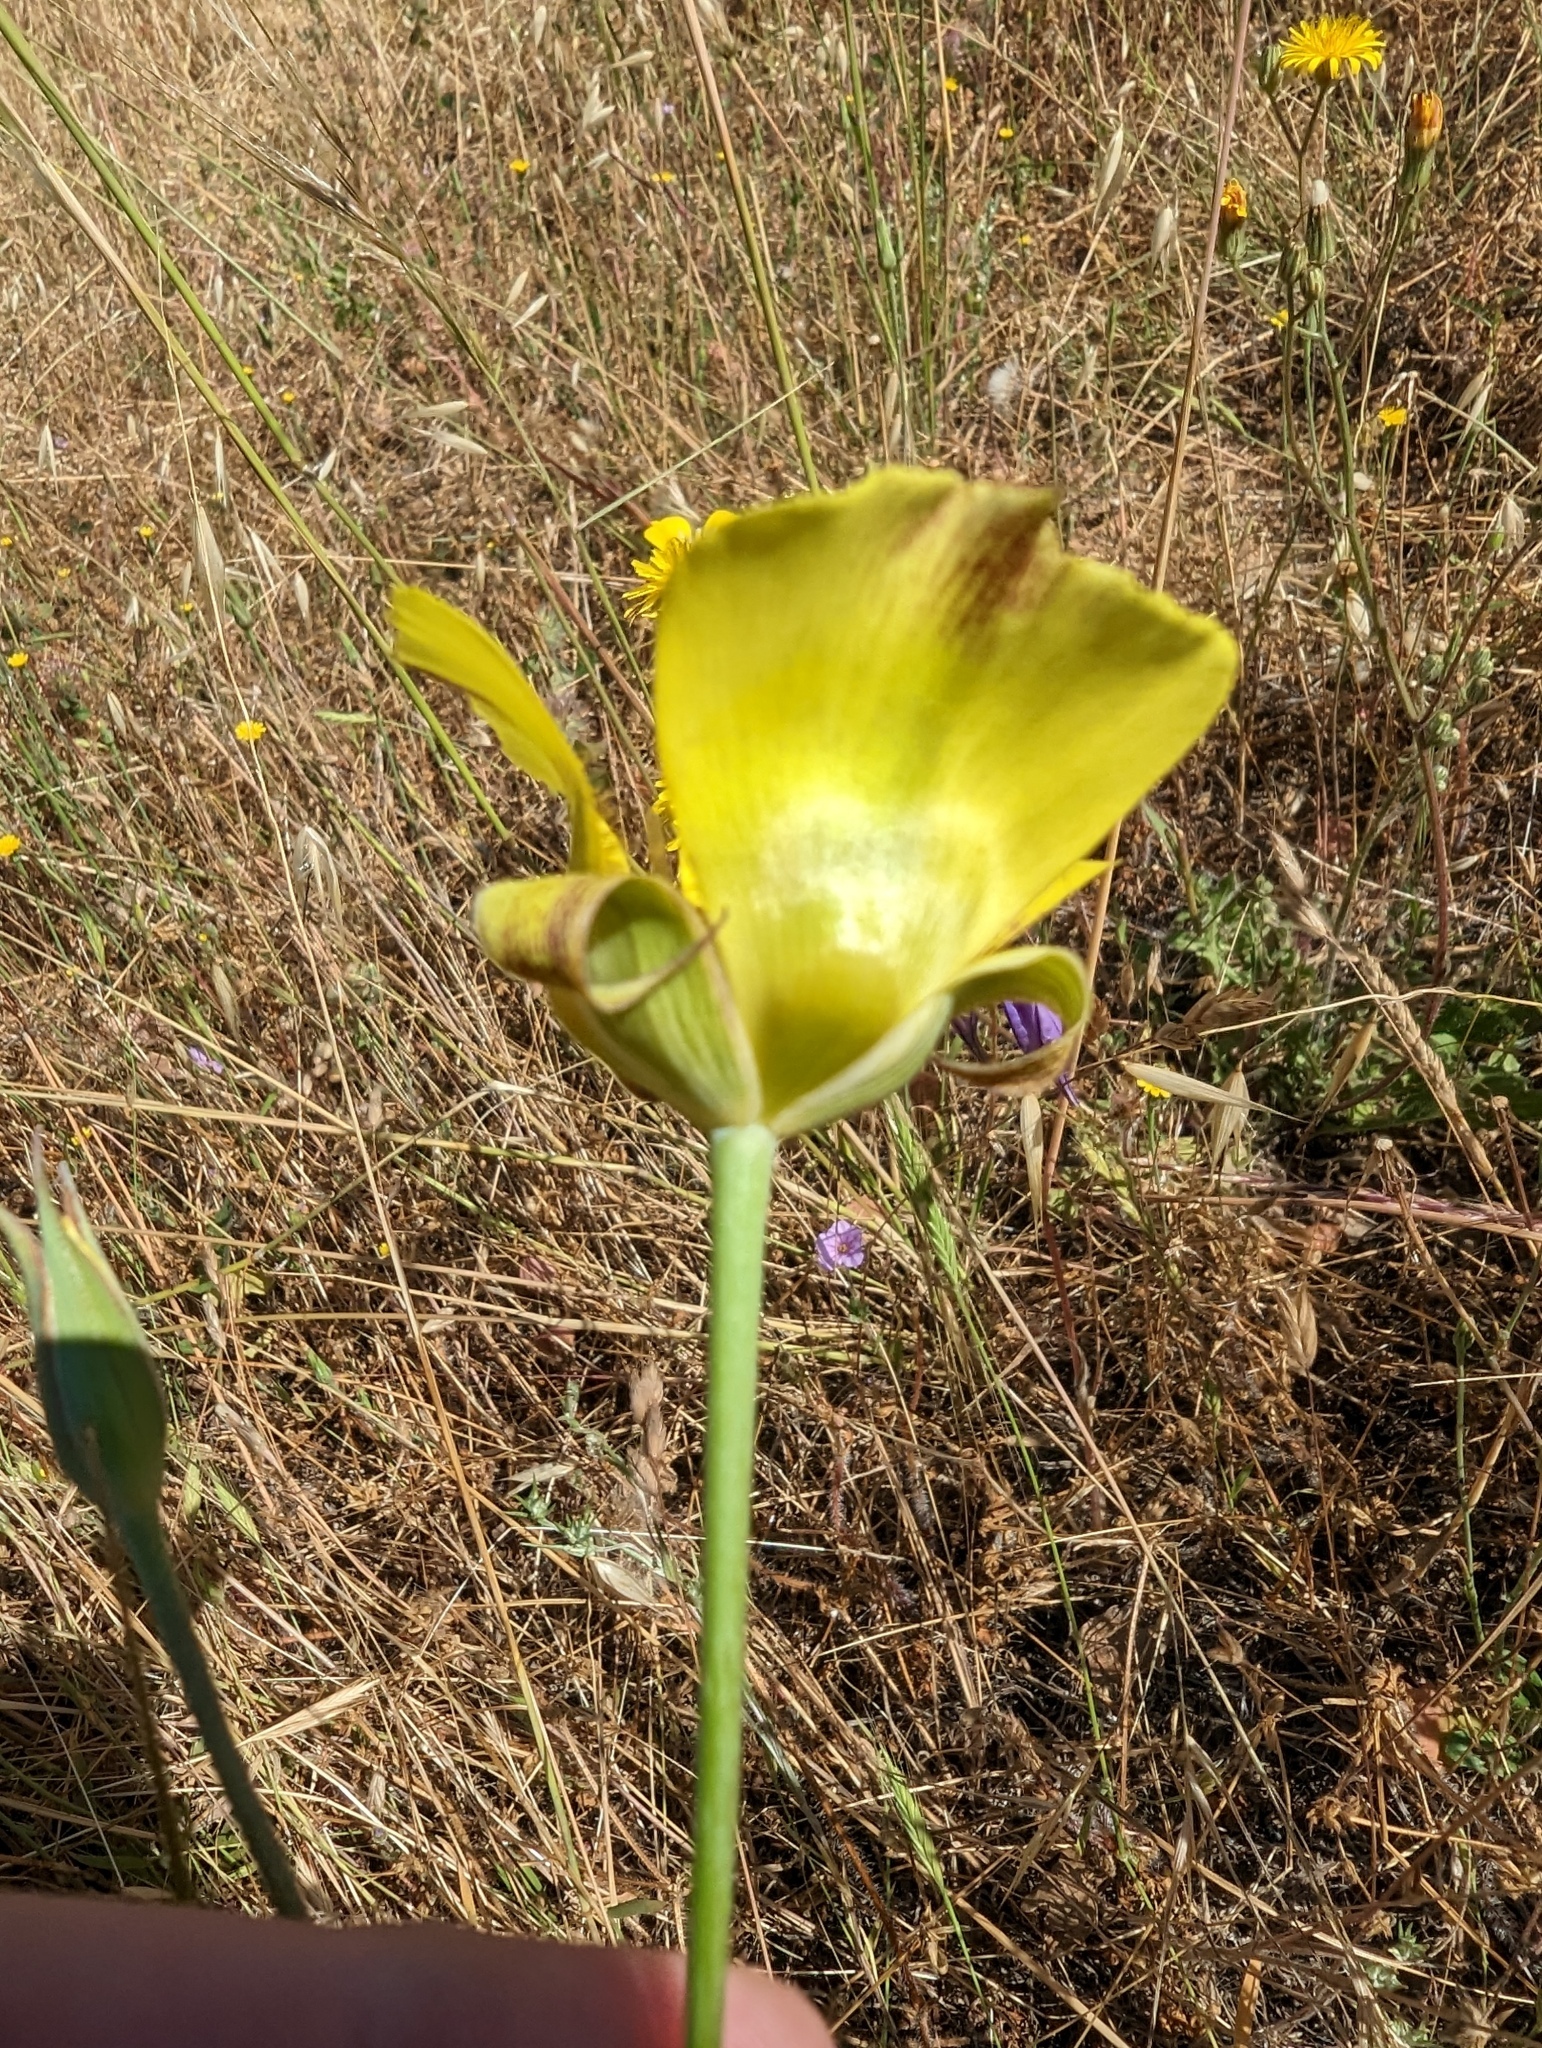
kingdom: Plantae
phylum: Tracheophyta
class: Liliopsida
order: Liliales
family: Liliaceae
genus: Calochortus
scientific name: Calochortus luteus
